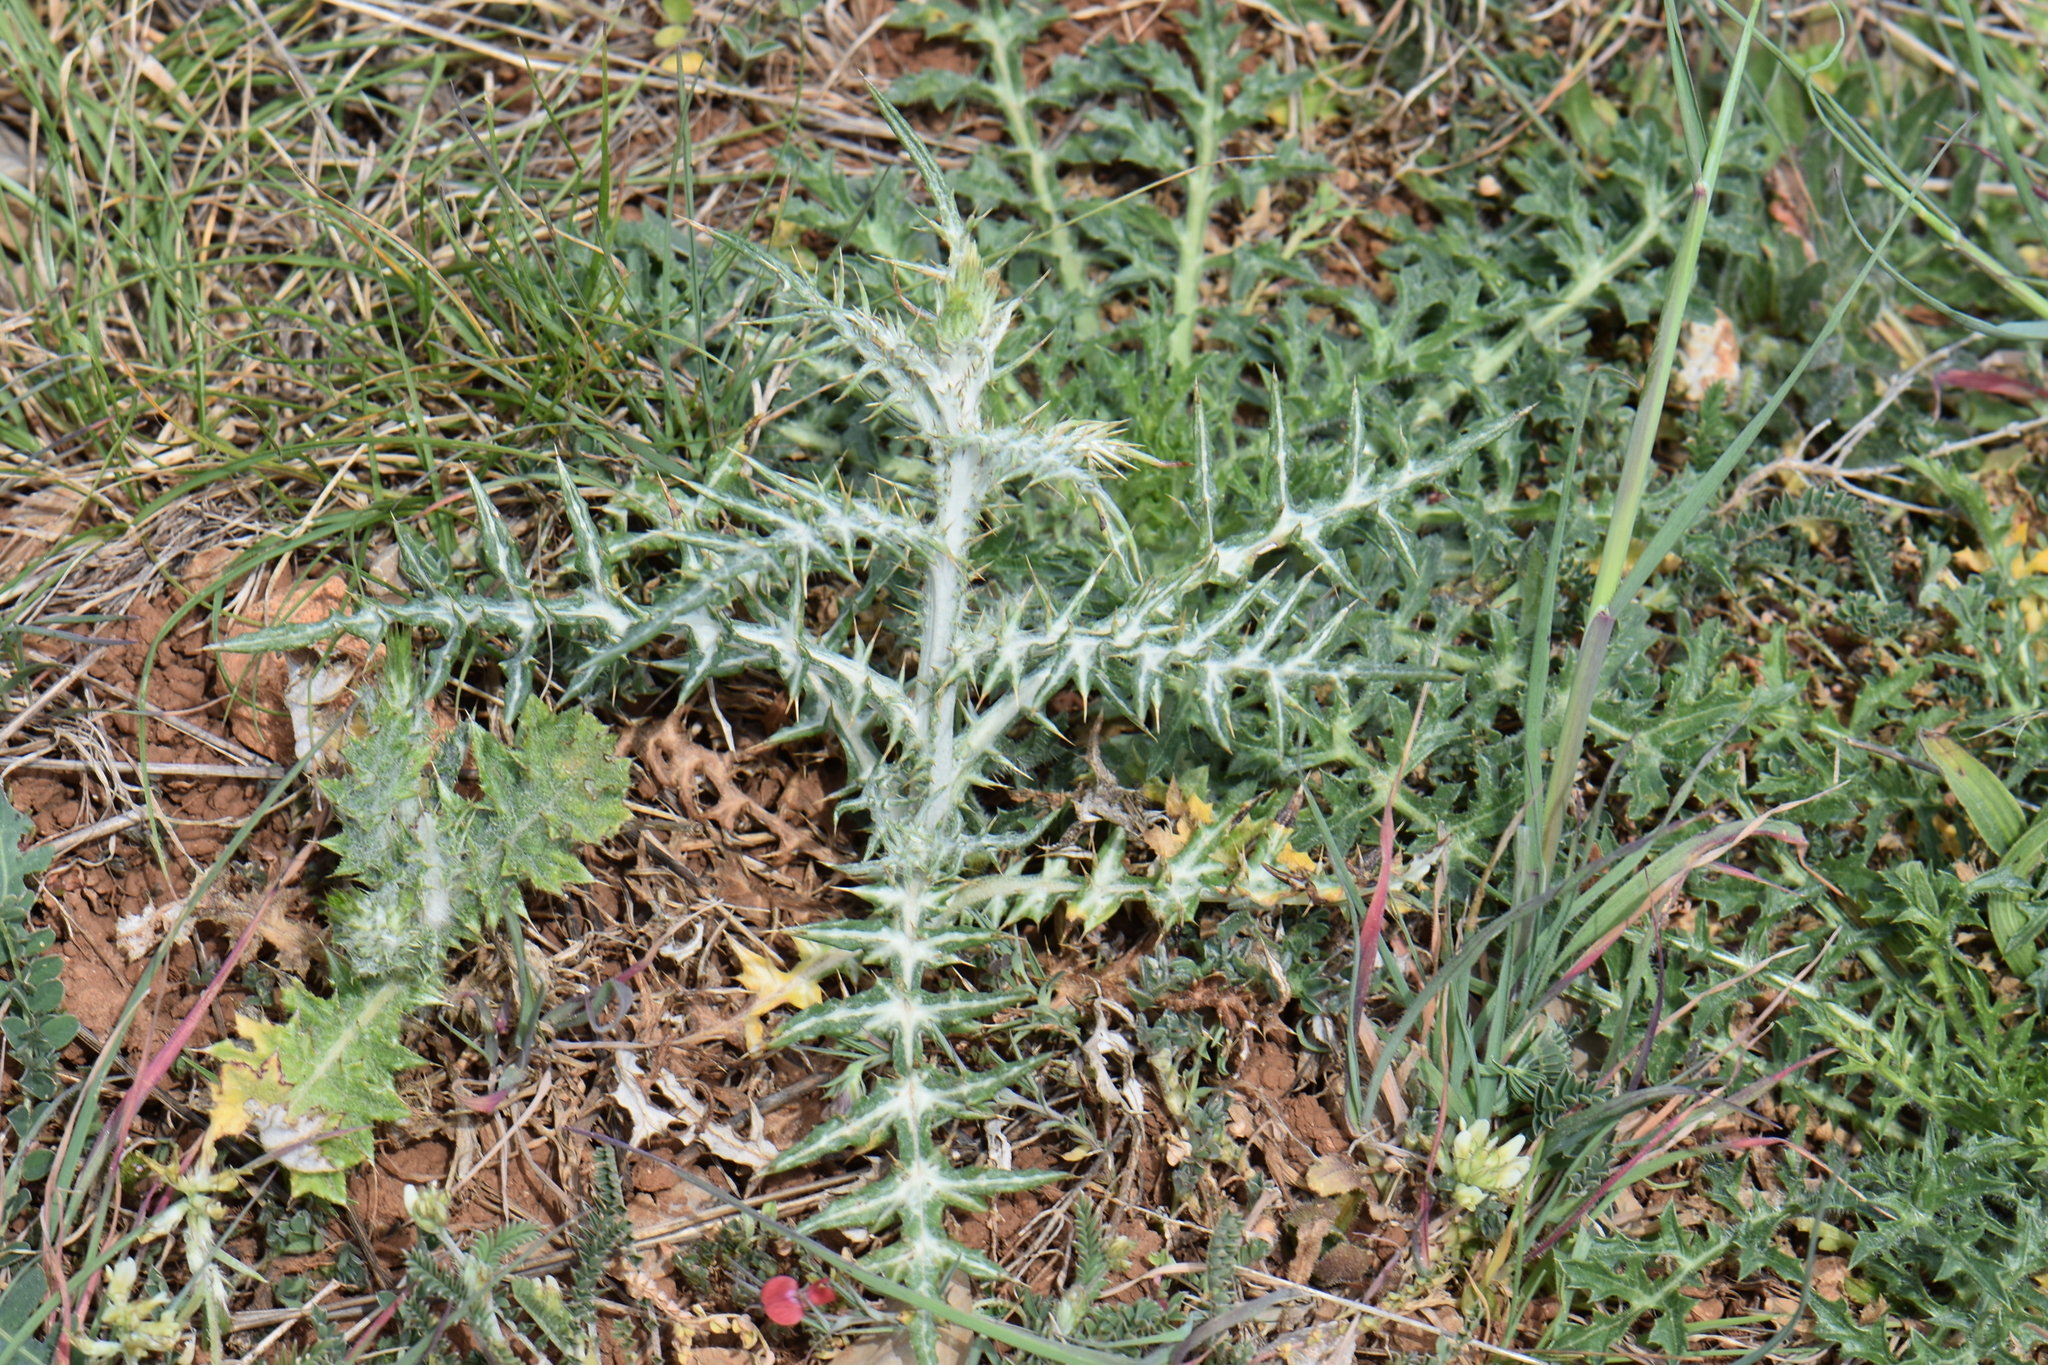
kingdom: Plantae
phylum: Tracheophyta
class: Magnoliopsida
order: Asterales
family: Asteraceae
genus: Galactites
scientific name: Galactites tomentosa
